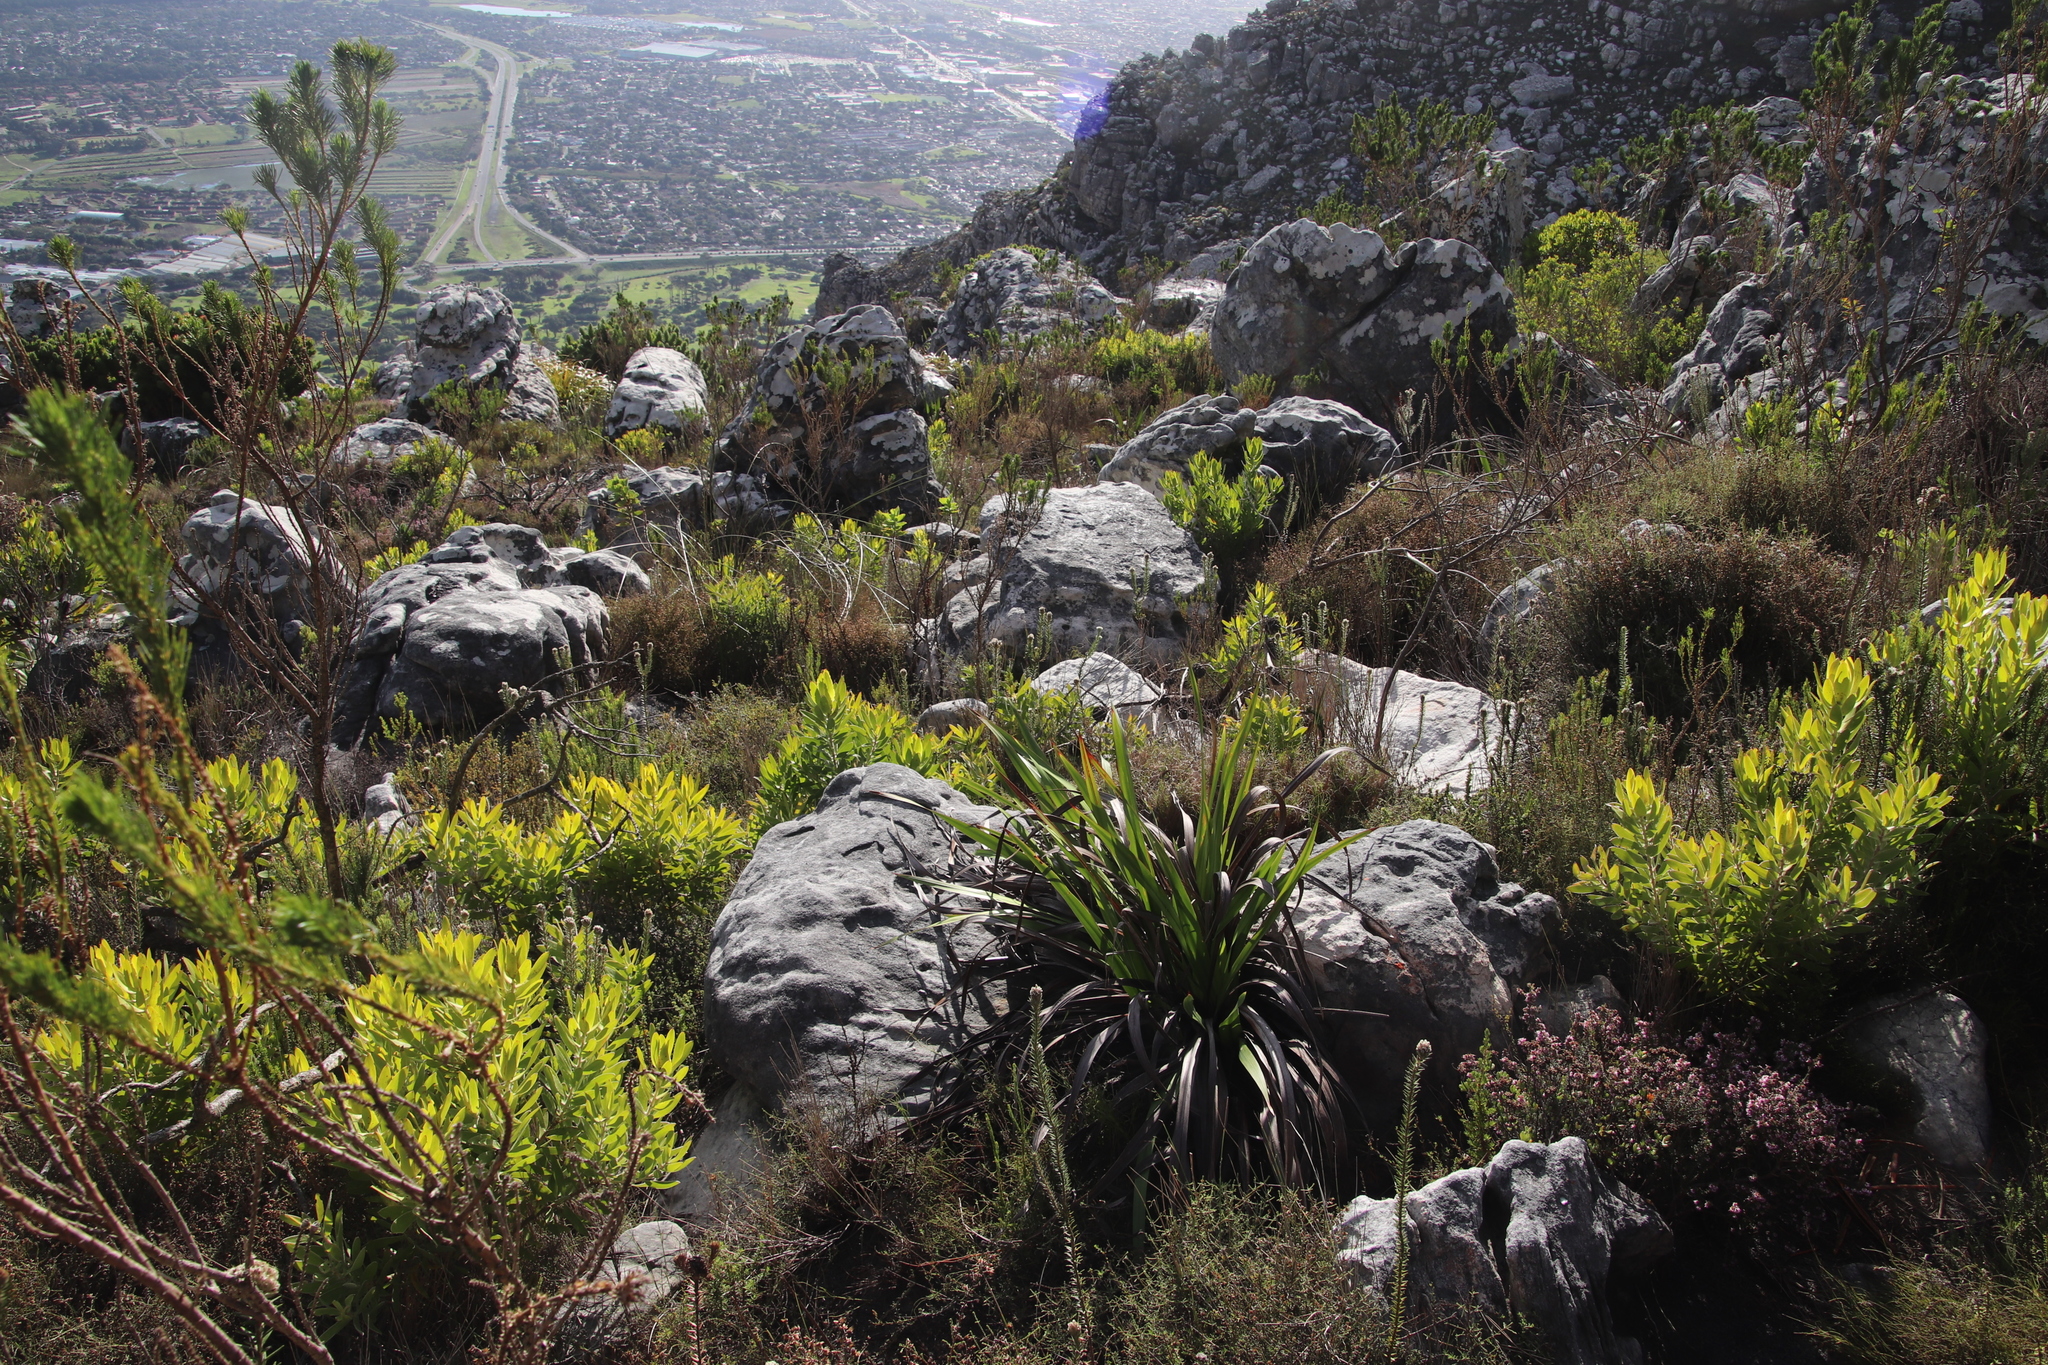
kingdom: Plantae
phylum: Tracheophyta
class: Magnoliopsida
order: Rosales
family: Rhamnaceae
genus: Phylica
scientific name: Phylica strigosa
